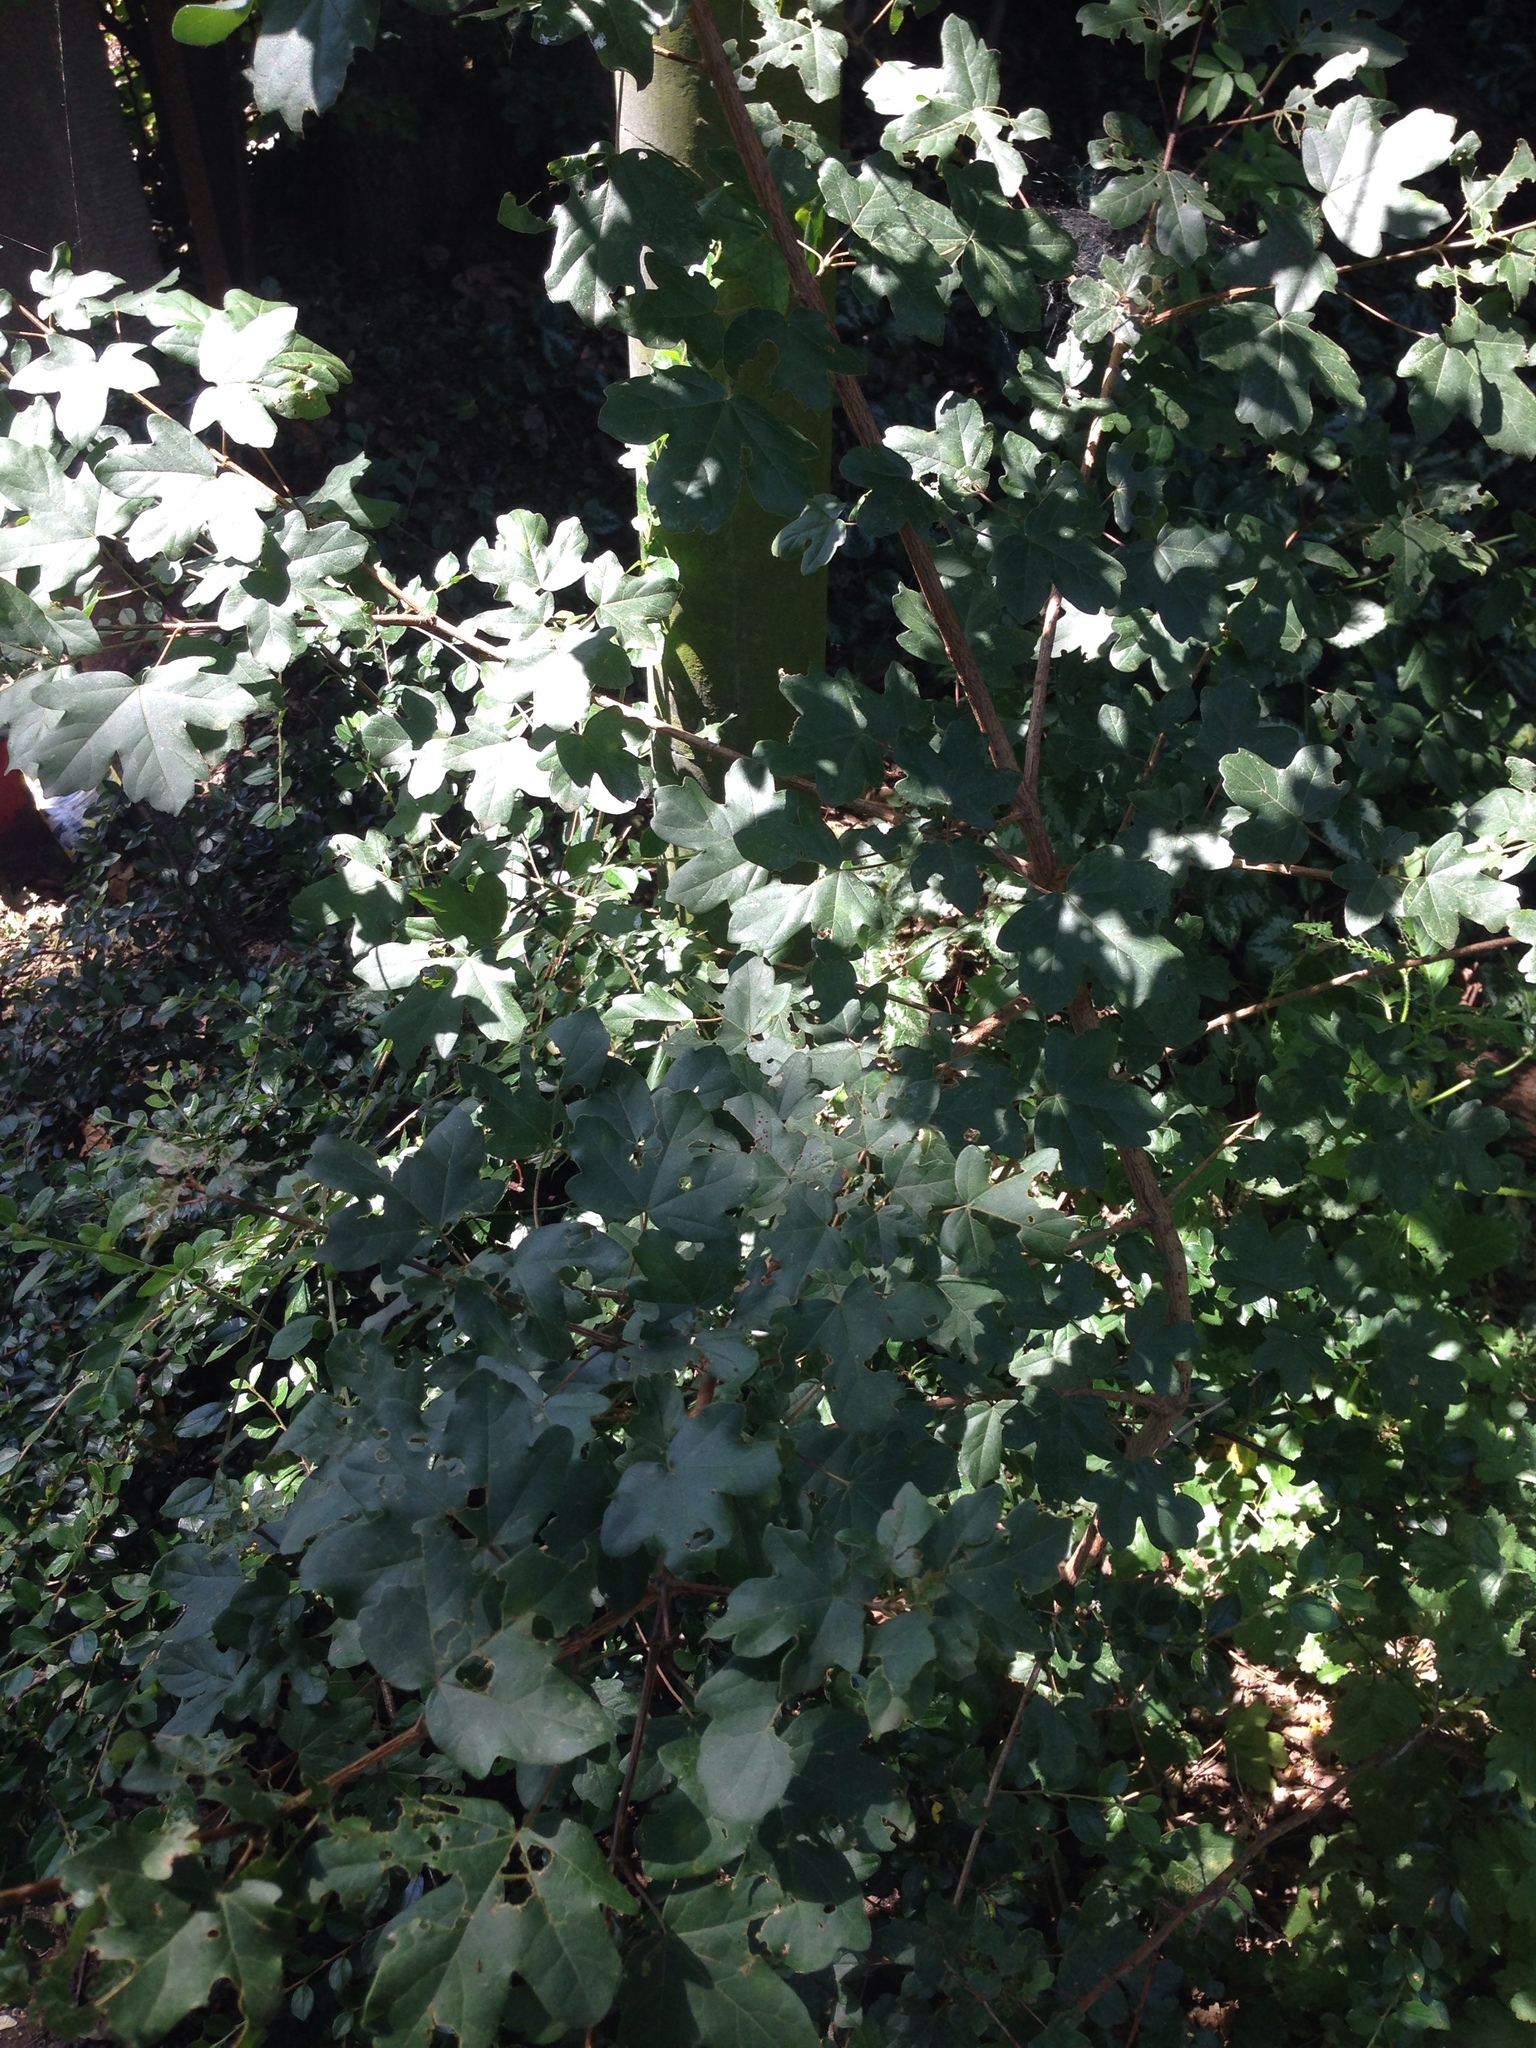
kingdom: Plantae
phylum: Tracheophyta
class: Magnoliopsida
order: Sapindales
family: Sapindaceae
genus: Acer
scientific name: Acer campestre
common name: Field maple
